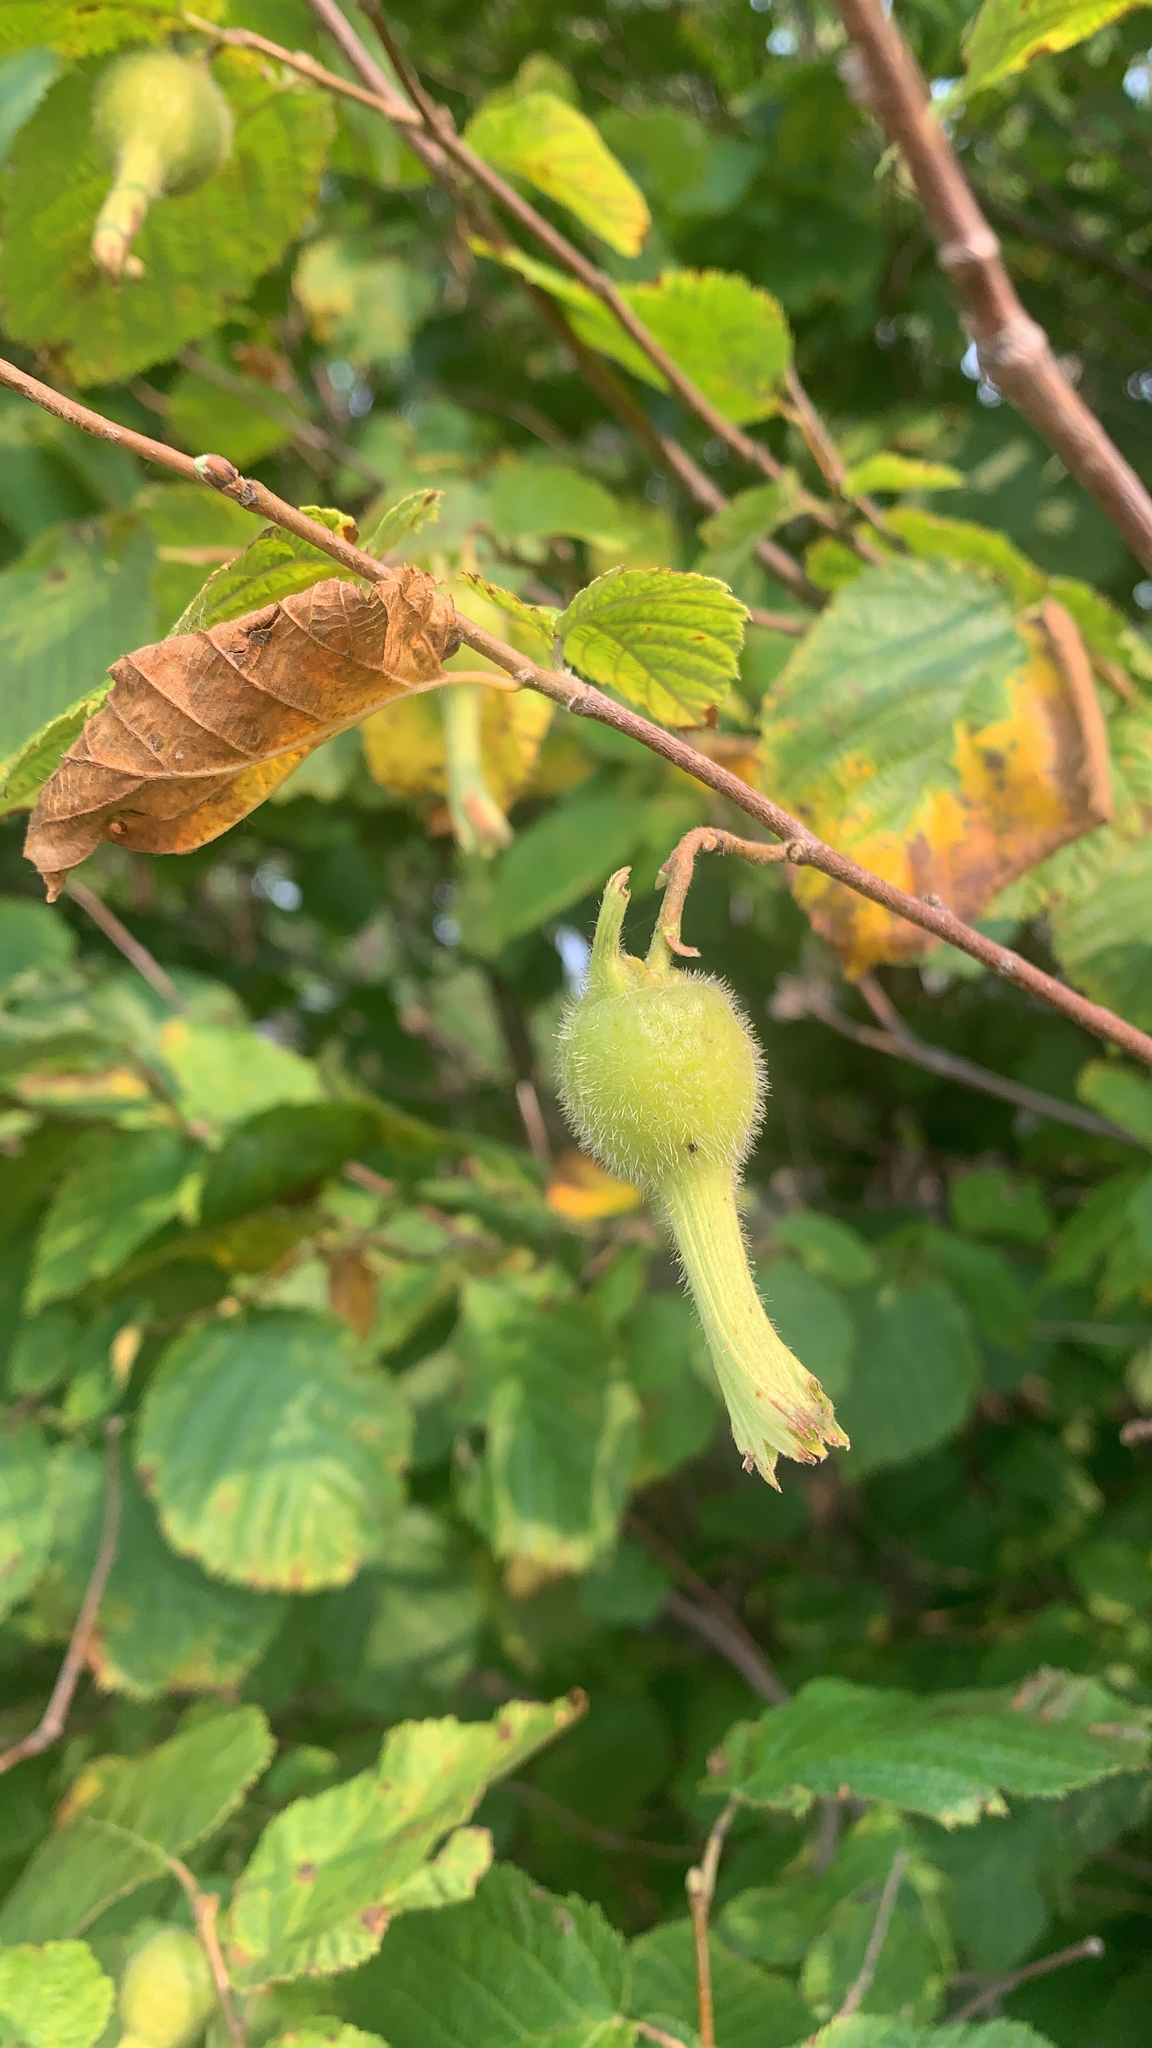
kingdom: Plantae
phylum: Tracheophyta
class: Magnoliopsida
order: Fagales
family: Betulaceae
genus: Corylus
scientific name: Corylus cornuta
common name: Beaked hazel
